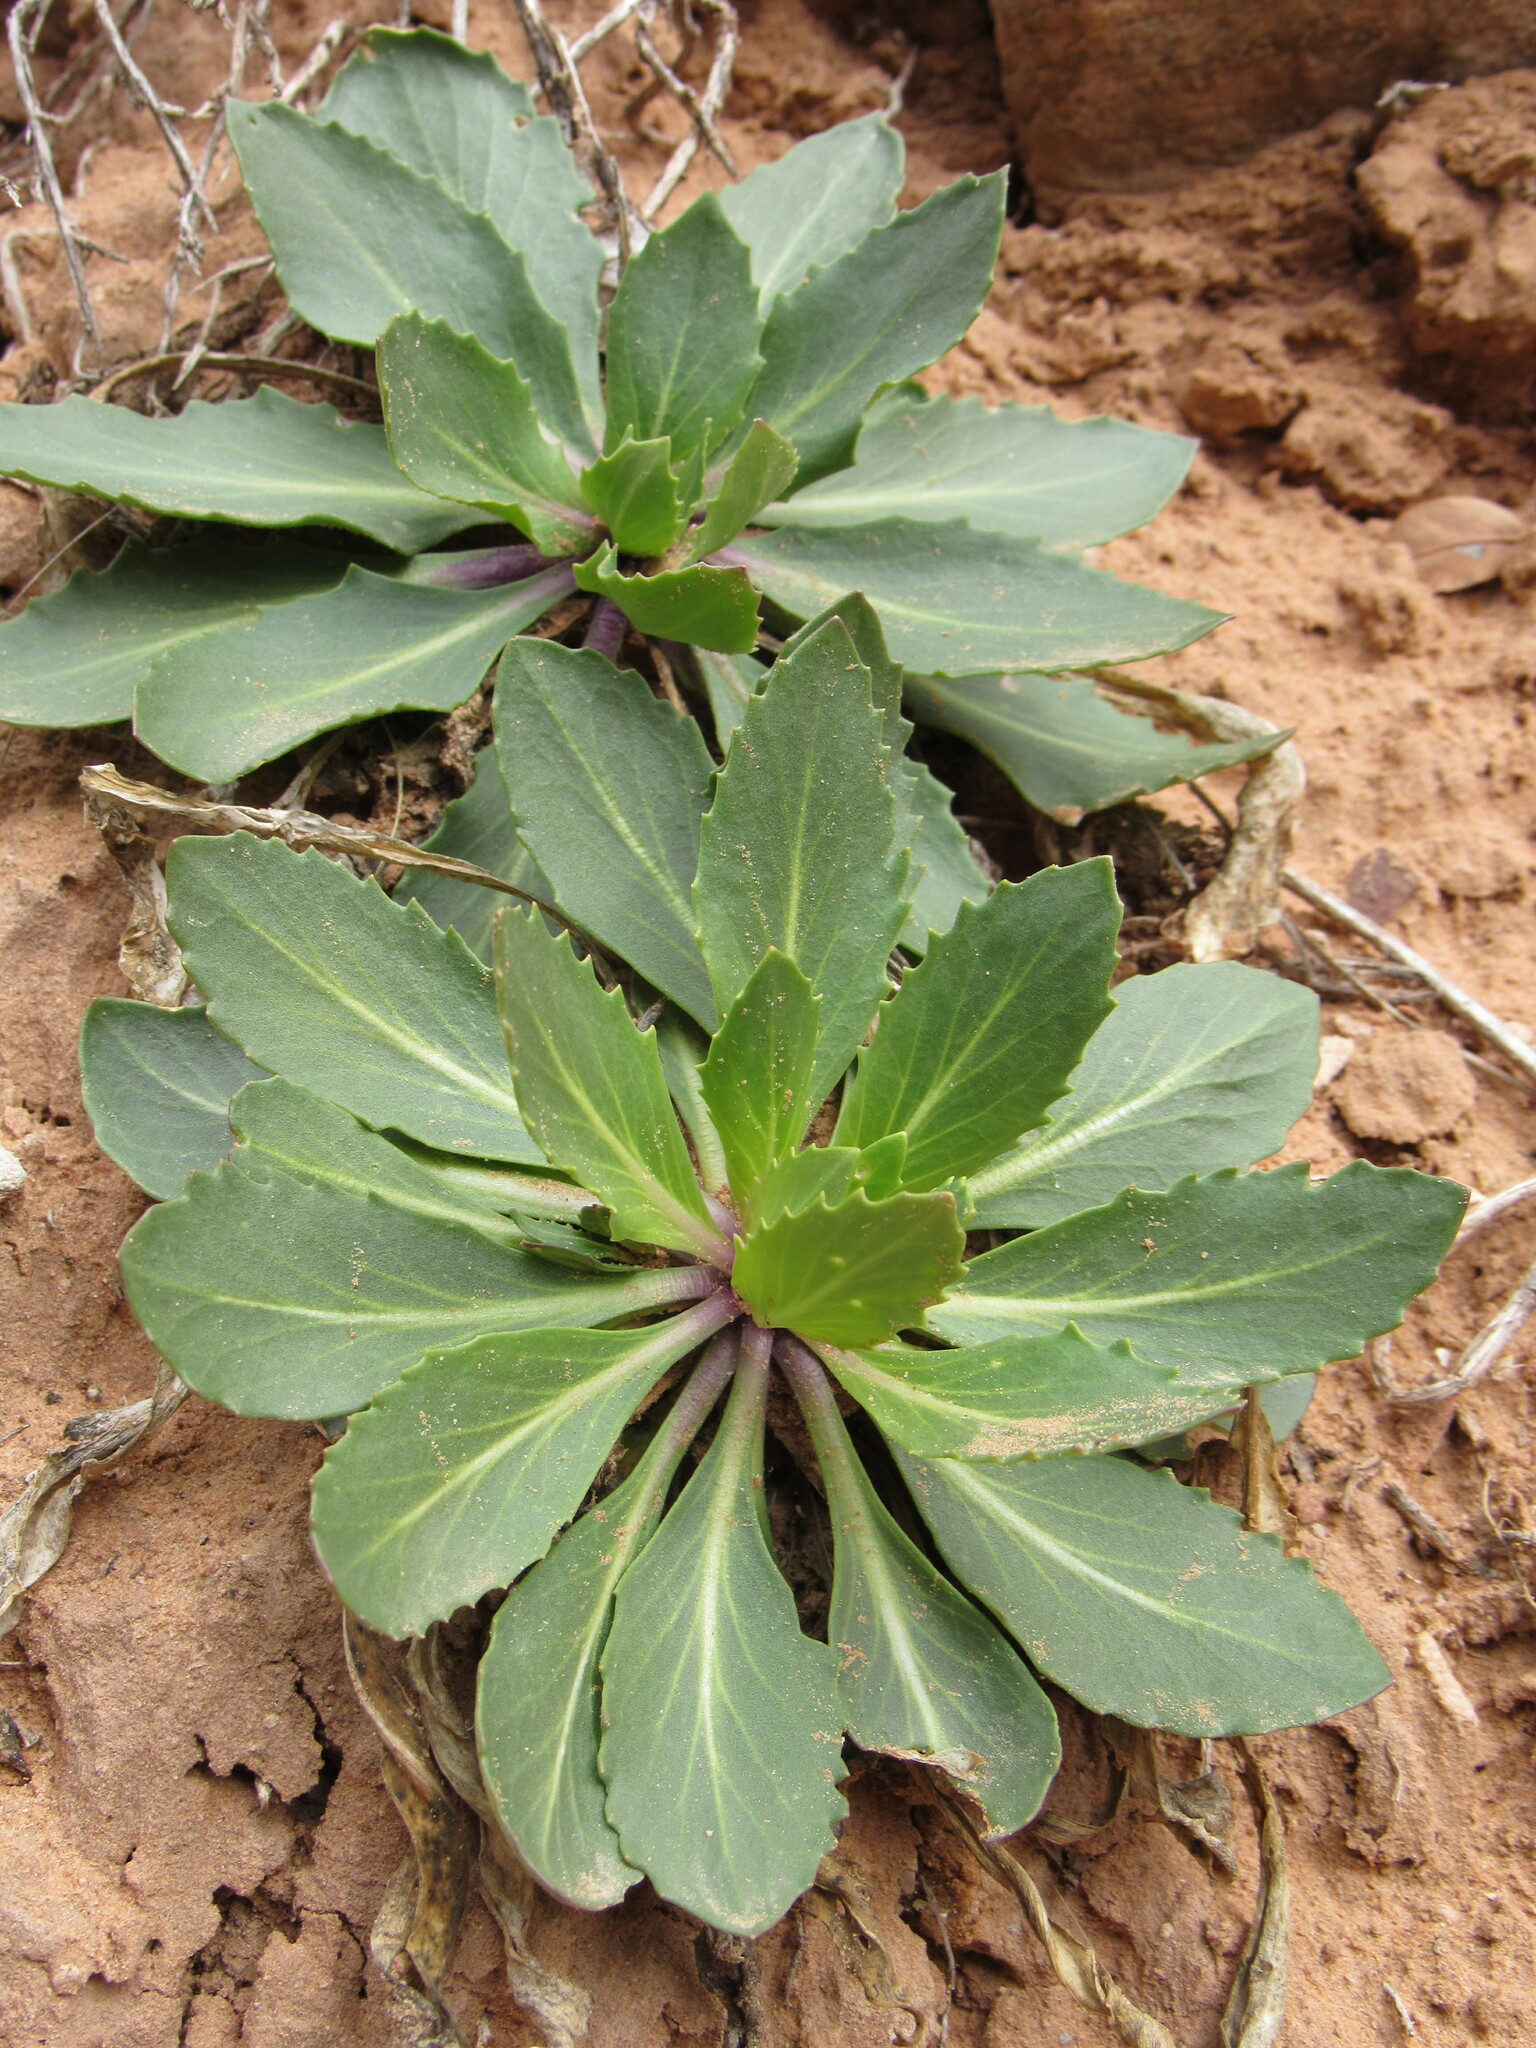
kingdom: Plantae
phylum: Tracheophyta
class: Magnoliopsida
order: Brassicales
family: Brassicaceae
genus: Thelypodium
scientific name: Thelypodium integrifolium
